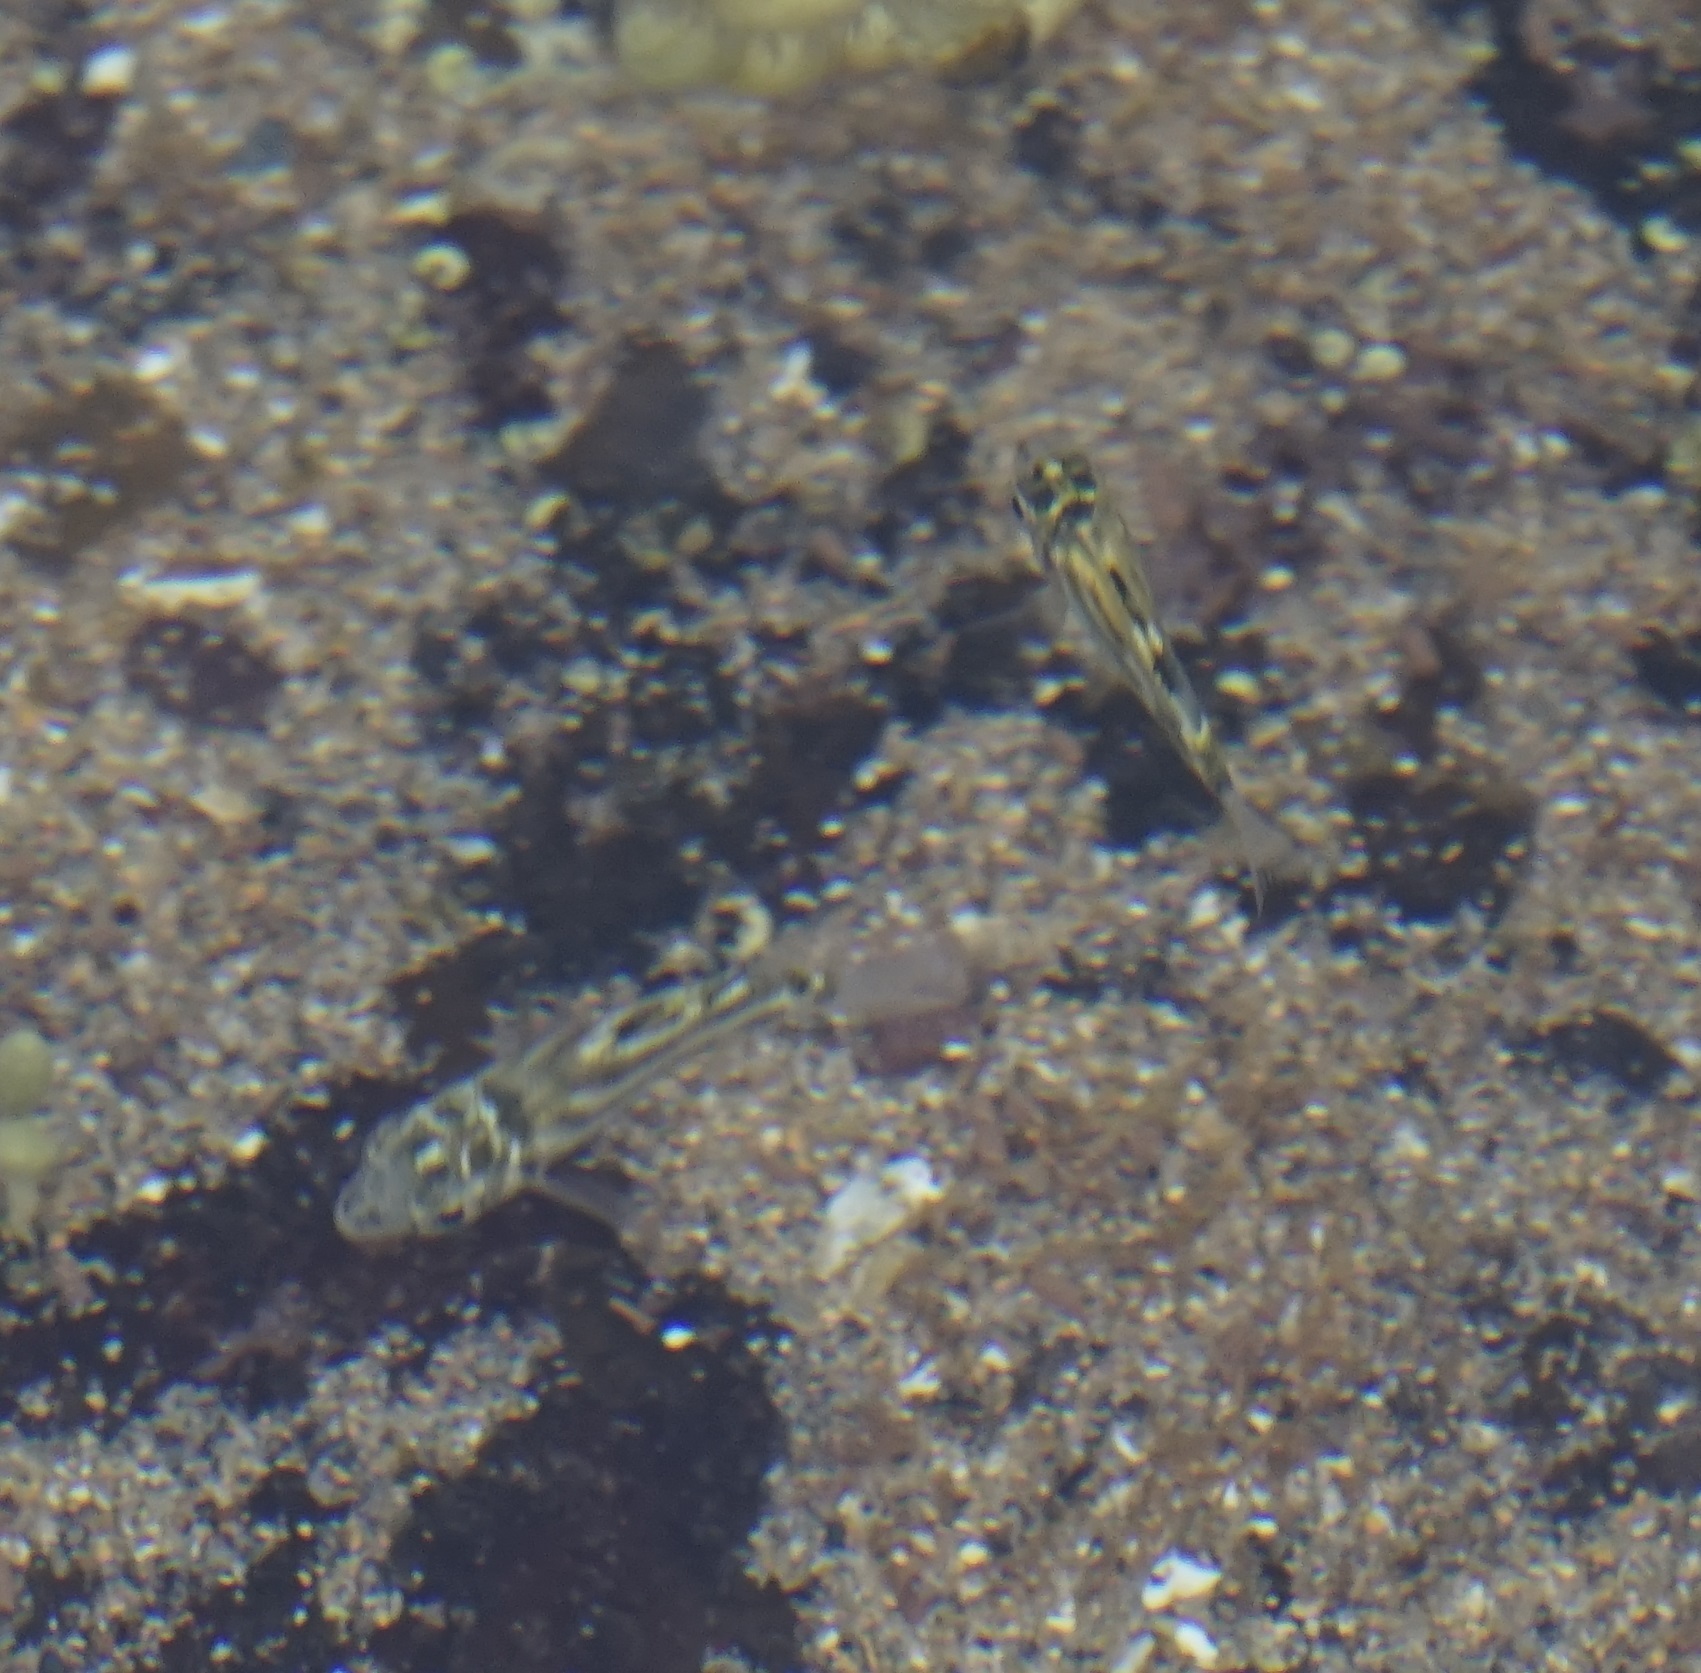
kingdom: Animalia
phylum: Chordata
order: Perciformes
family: Kyphosidae
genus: Microcanthus
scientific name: Microcanthus joyceae
